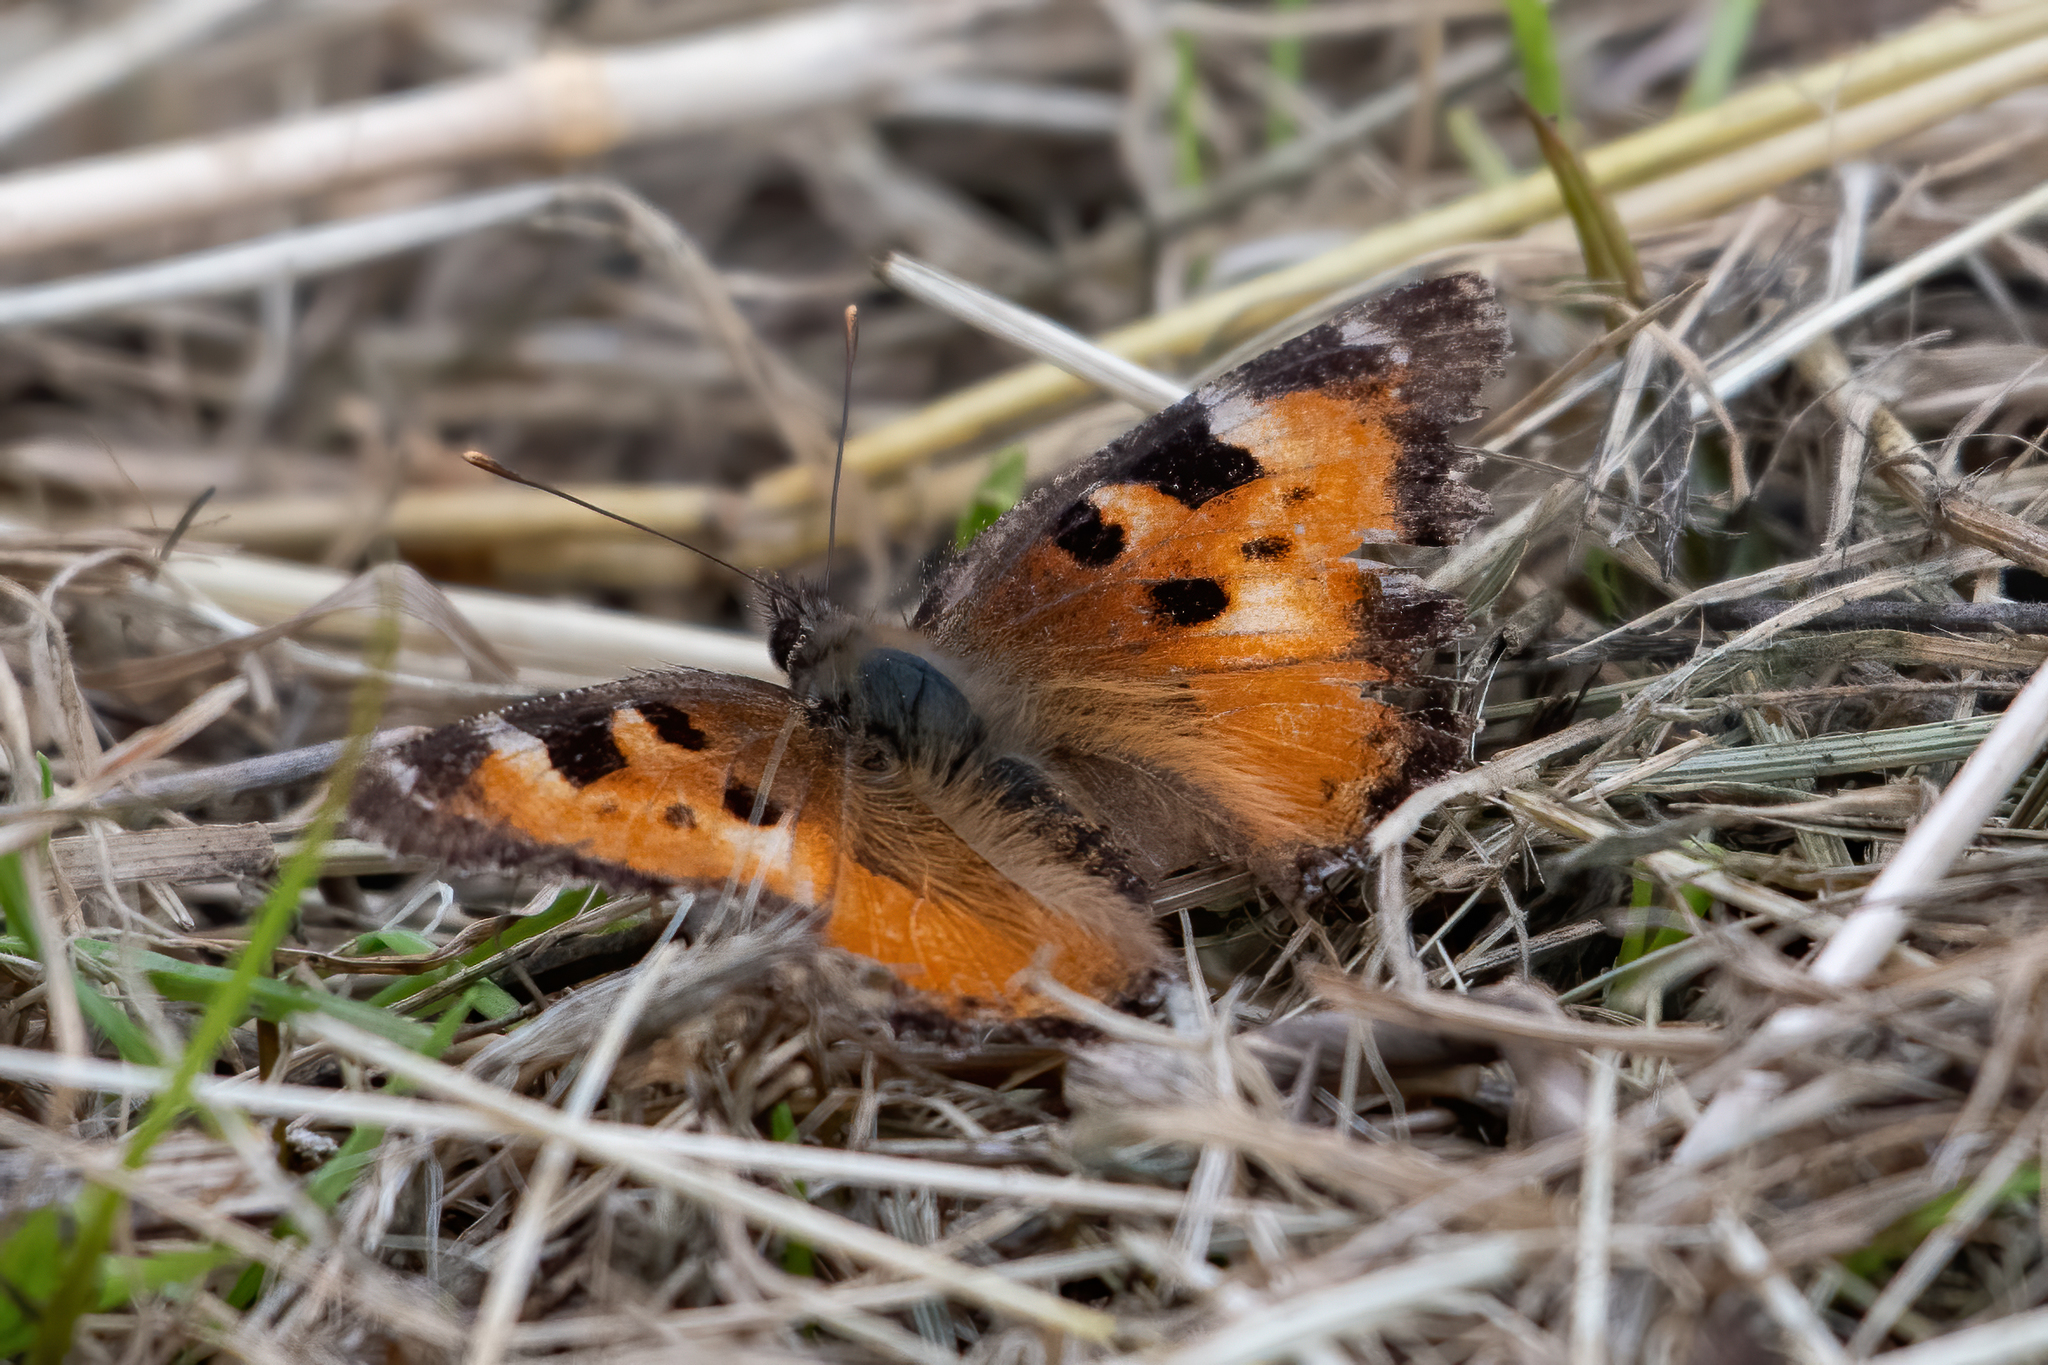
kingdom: Animalia
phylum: Arthropoda
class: Insecta
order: Lepidoptera
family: Nymphalidae
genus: Nymphalis
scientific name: Nymphalis californica
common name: California tortoiseshell
